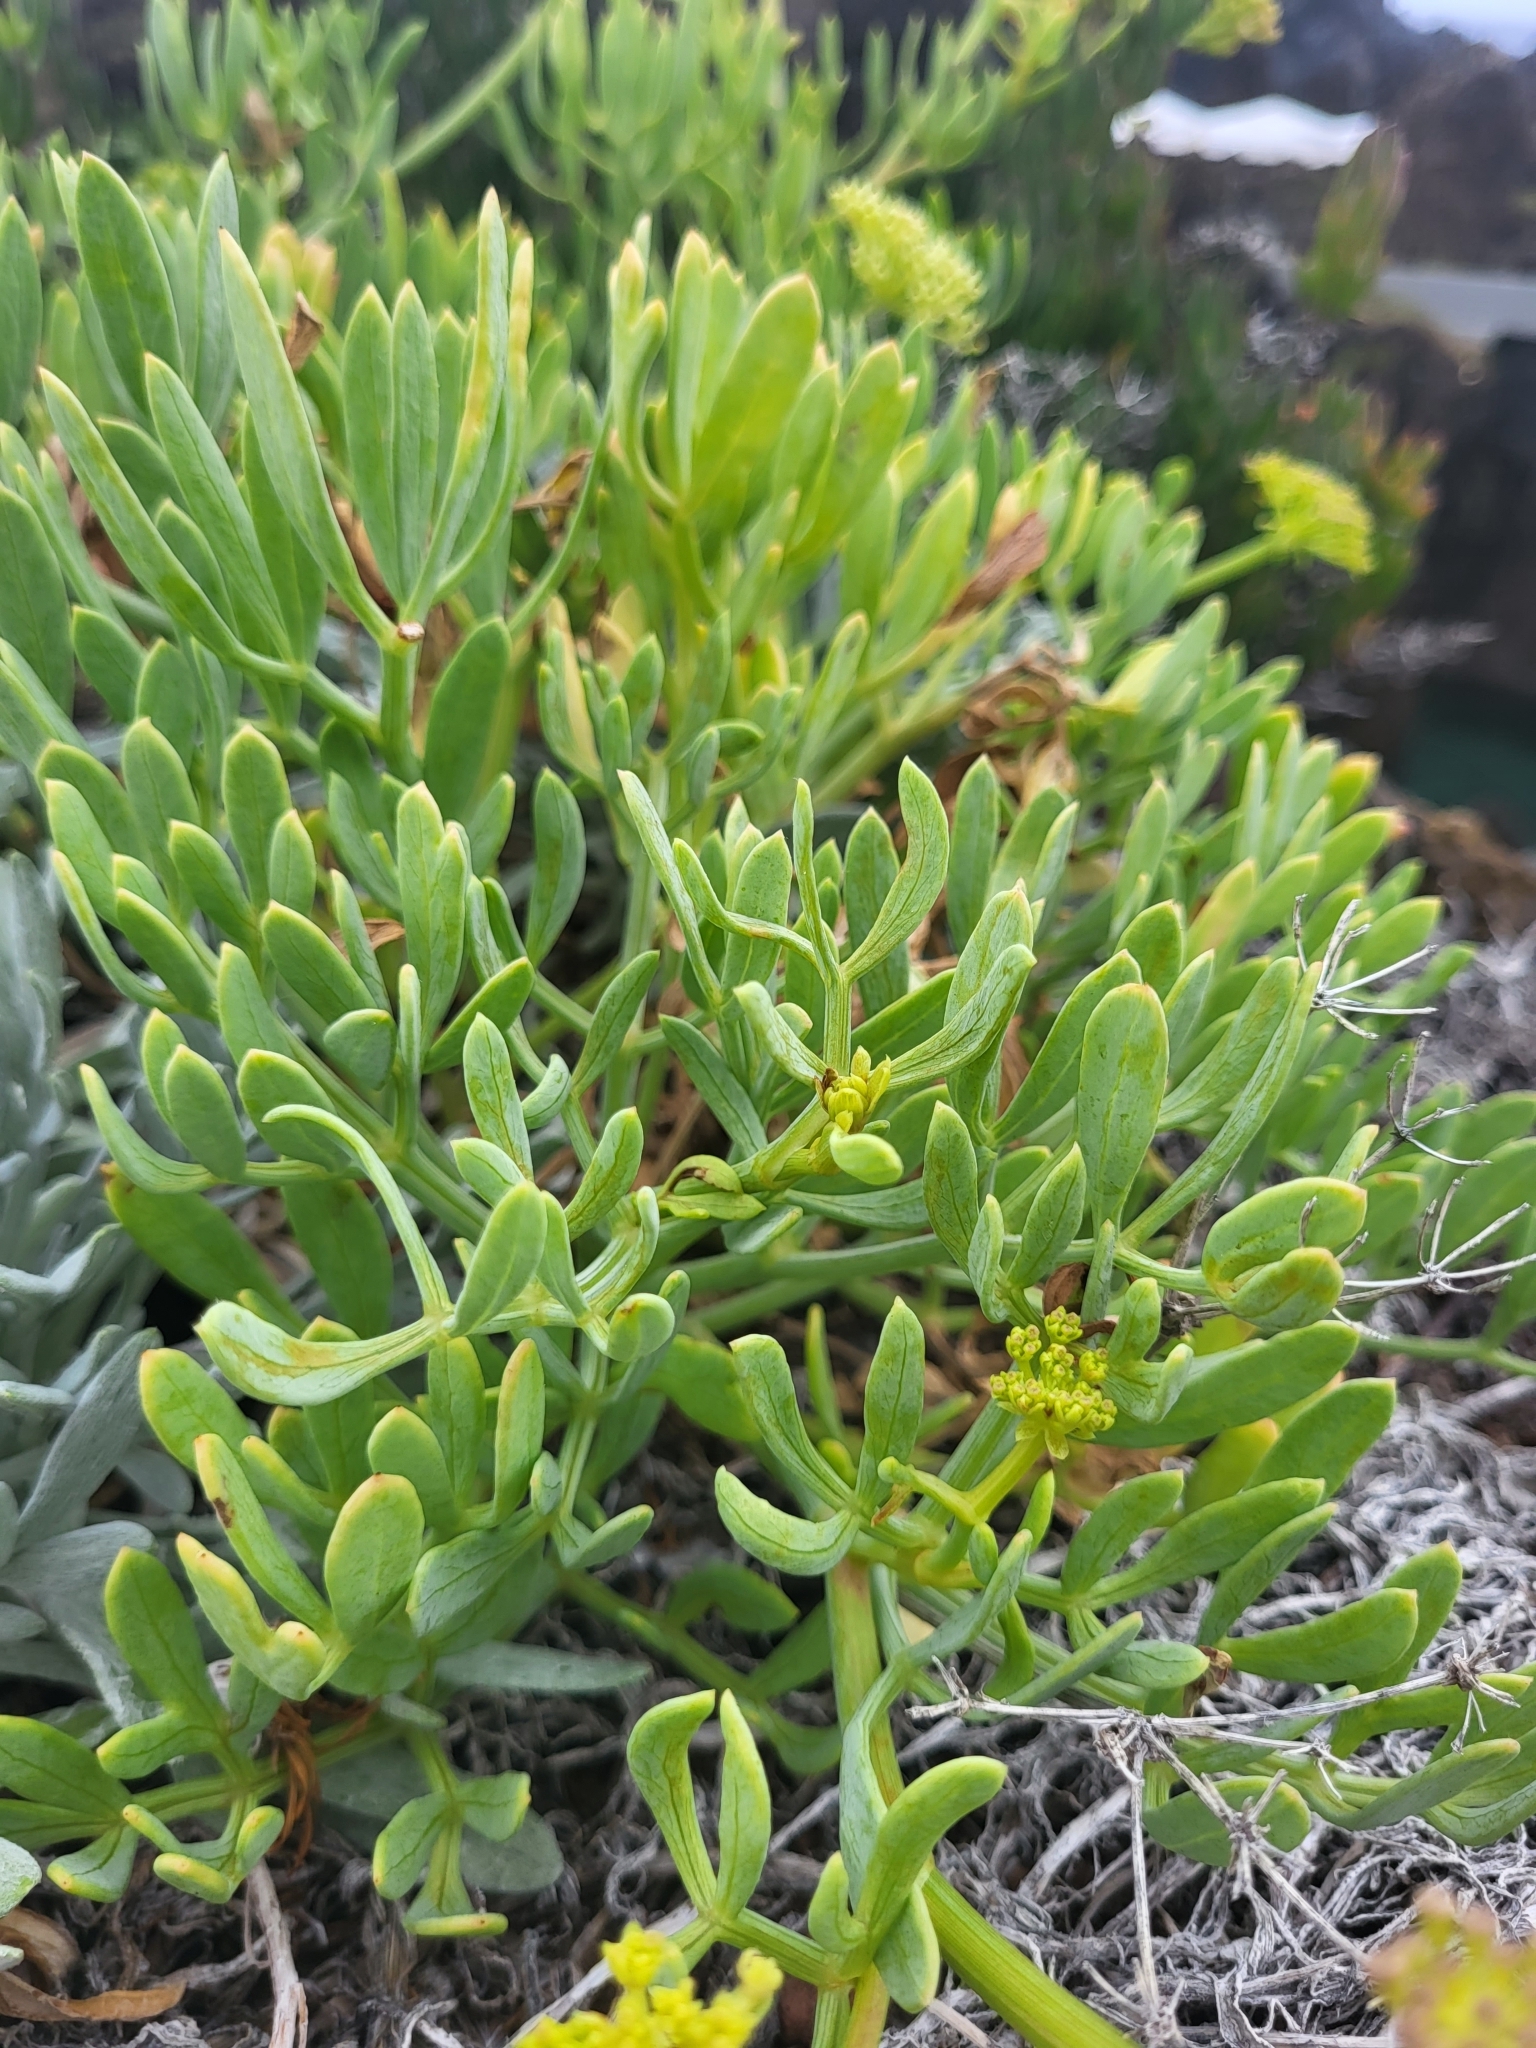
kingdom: Plantae
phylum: Tracheophyta
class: Magnoliopsida
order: Apiales
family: Apiaceae
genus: Crithmum
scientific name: Crithmum maritimum
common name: Rock samphire
